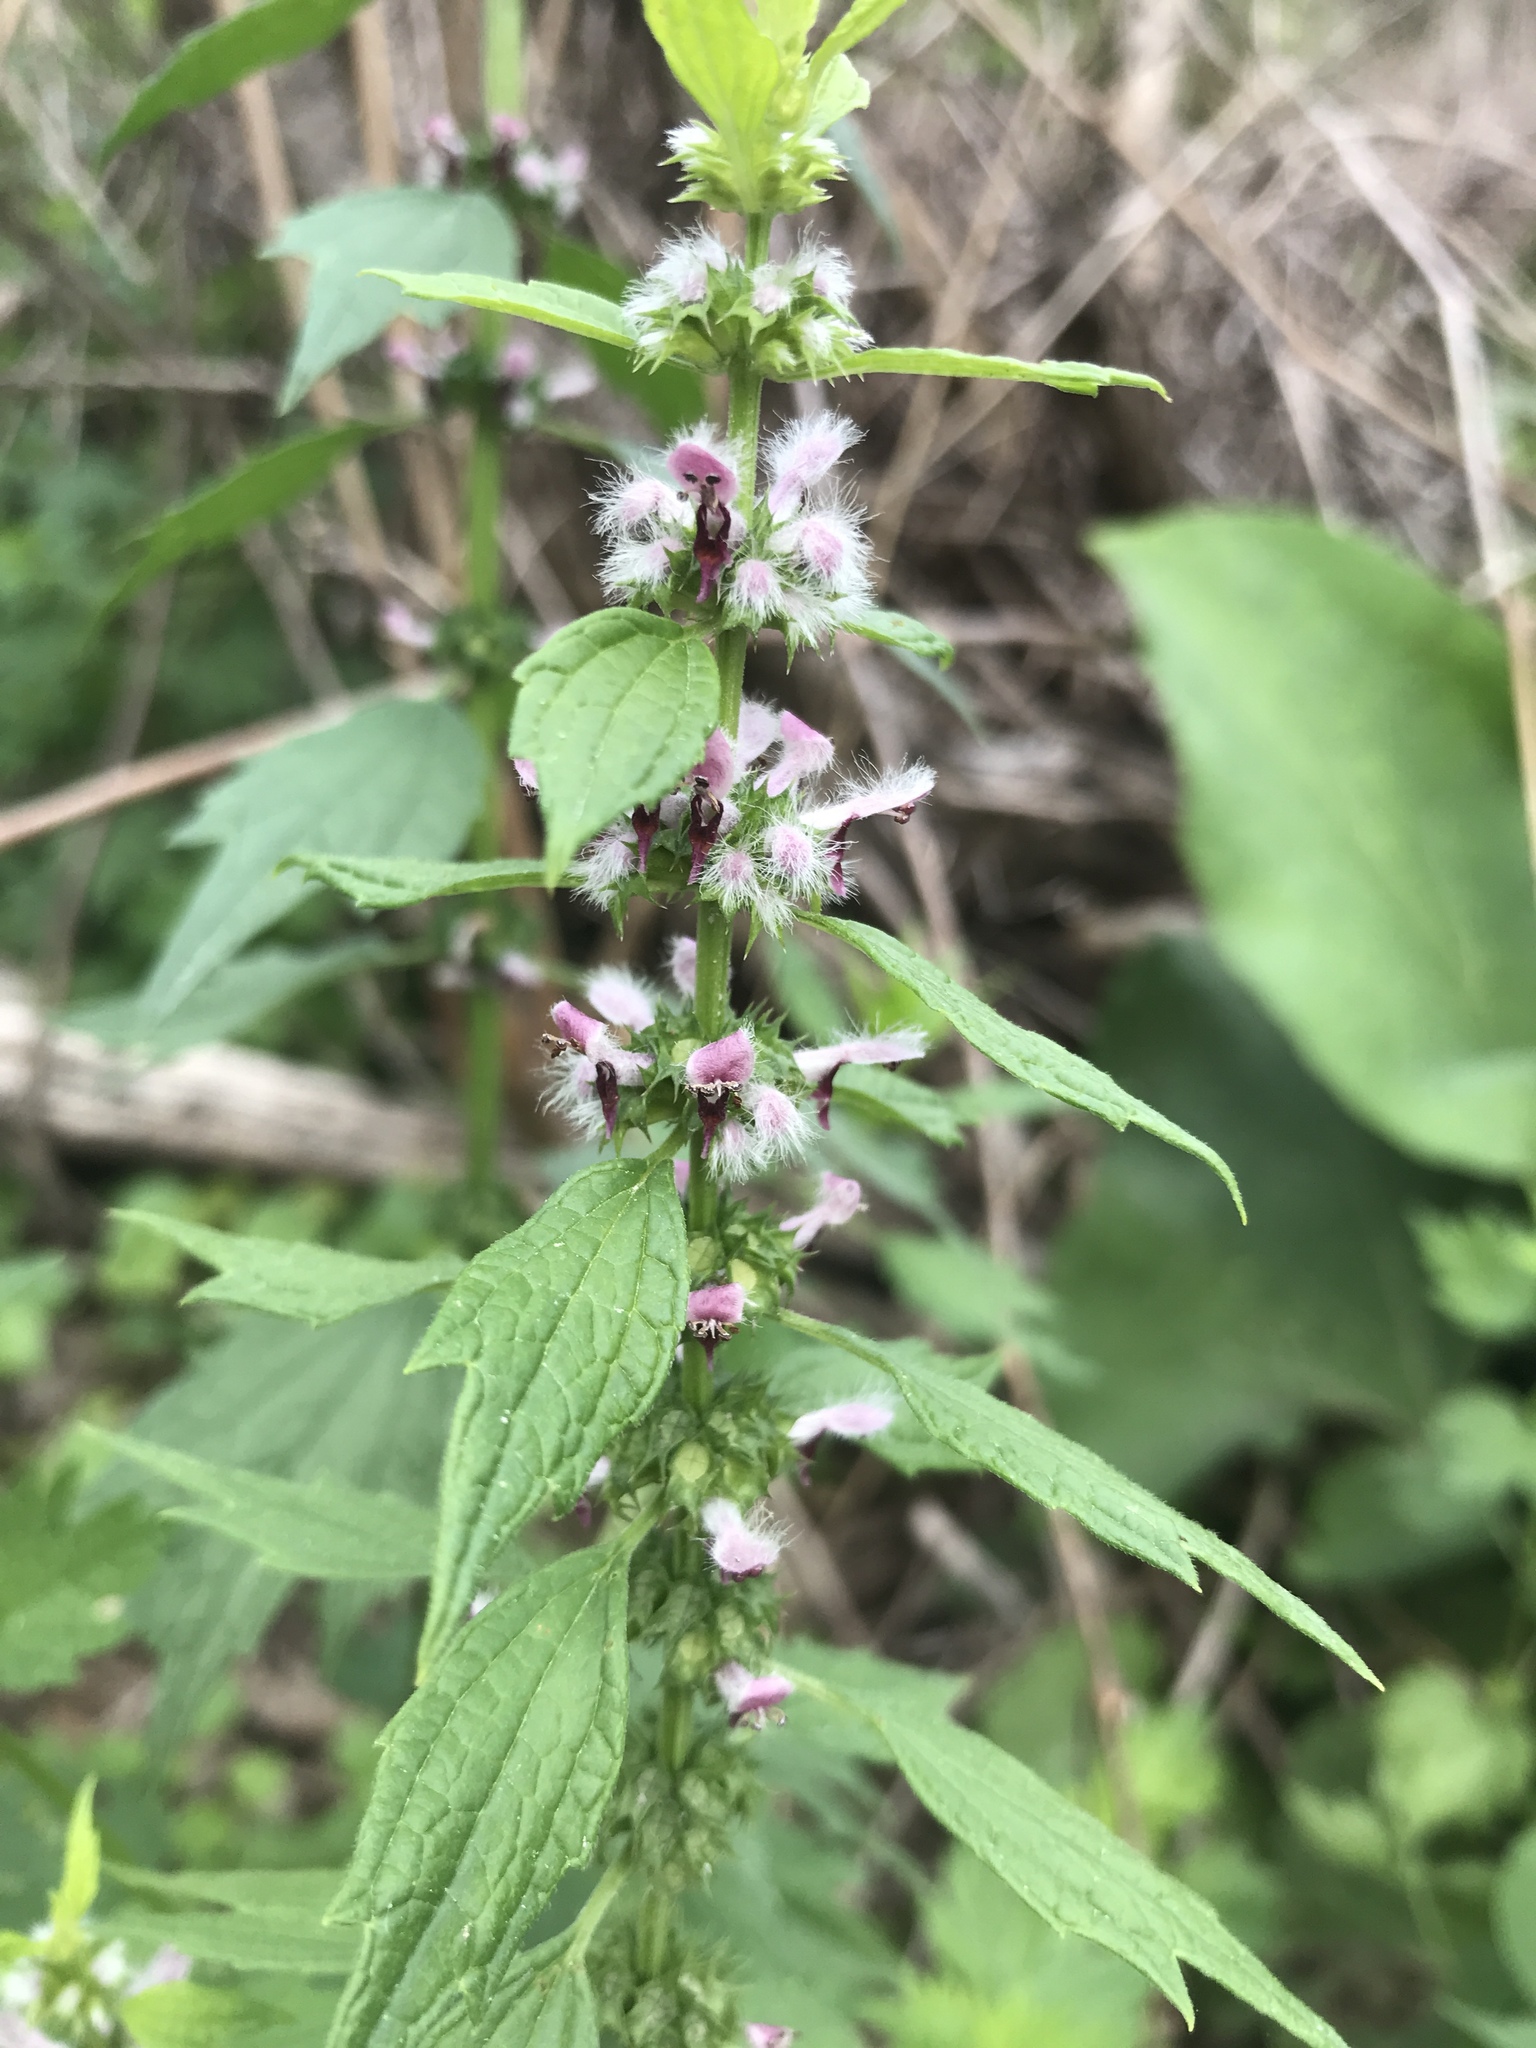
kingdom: Plantae
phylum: Tracheophyta
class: Magnoliopsida
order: Lamiales
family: Lamiaceae
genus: Leonurus
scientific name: Leonurus cardiaca
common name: Motherwort
